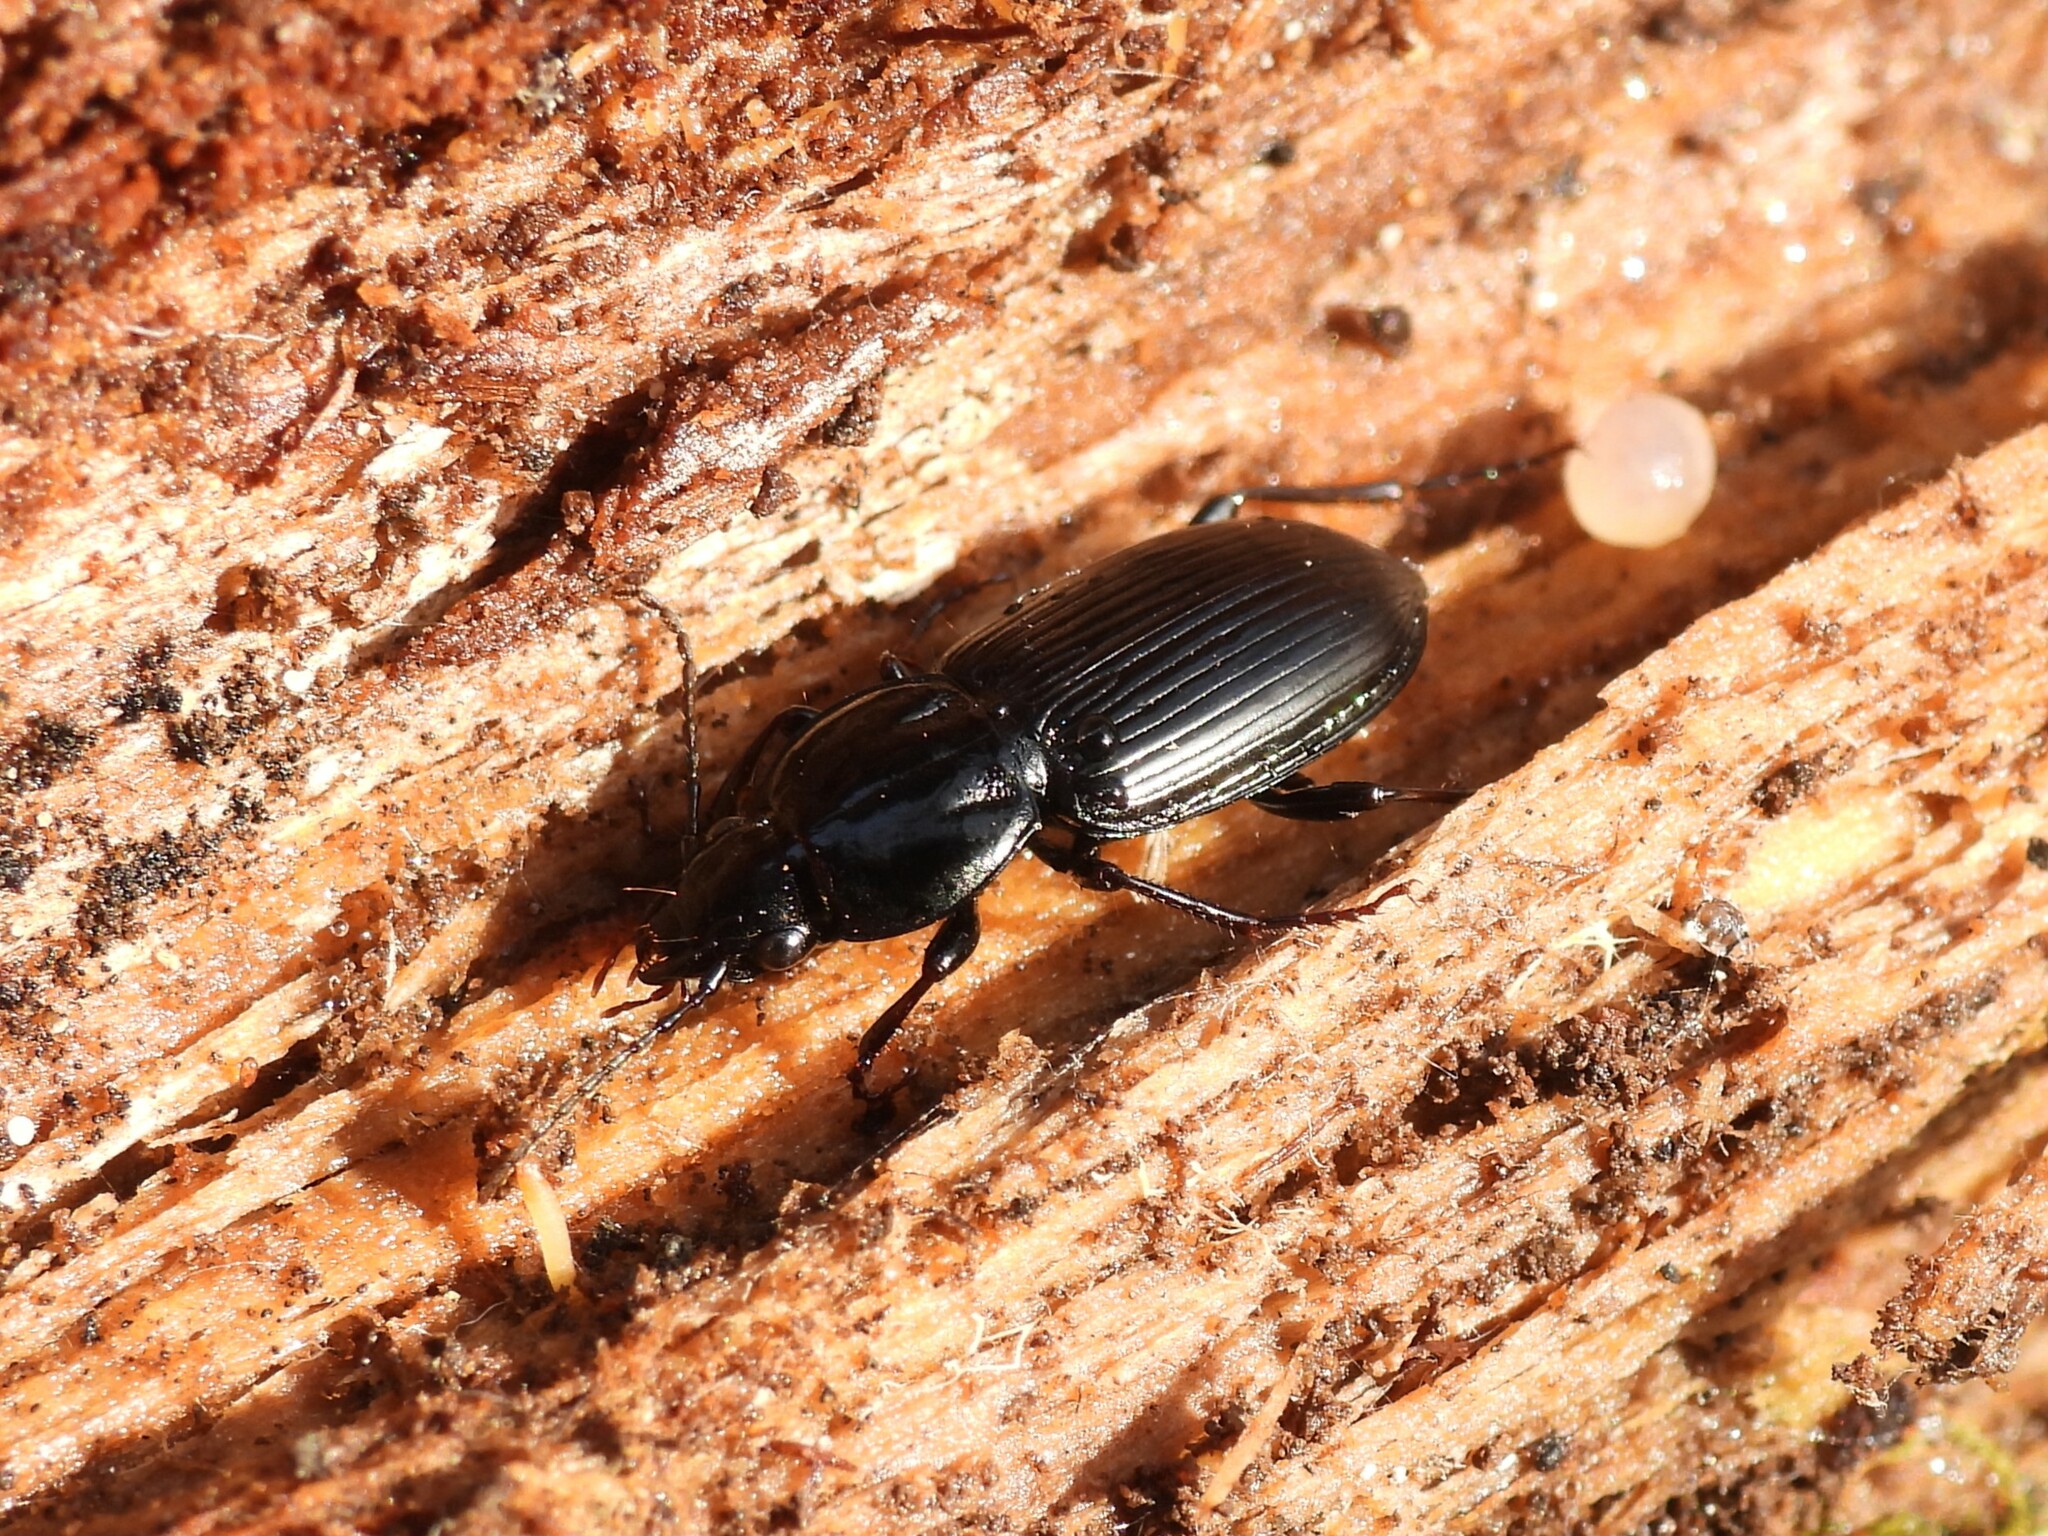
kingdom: Animalia
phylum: Arthropoda
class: Insecta
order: Coleoptera
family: Carabidae
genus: Pterostichus
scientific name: Pterostichus mutus
